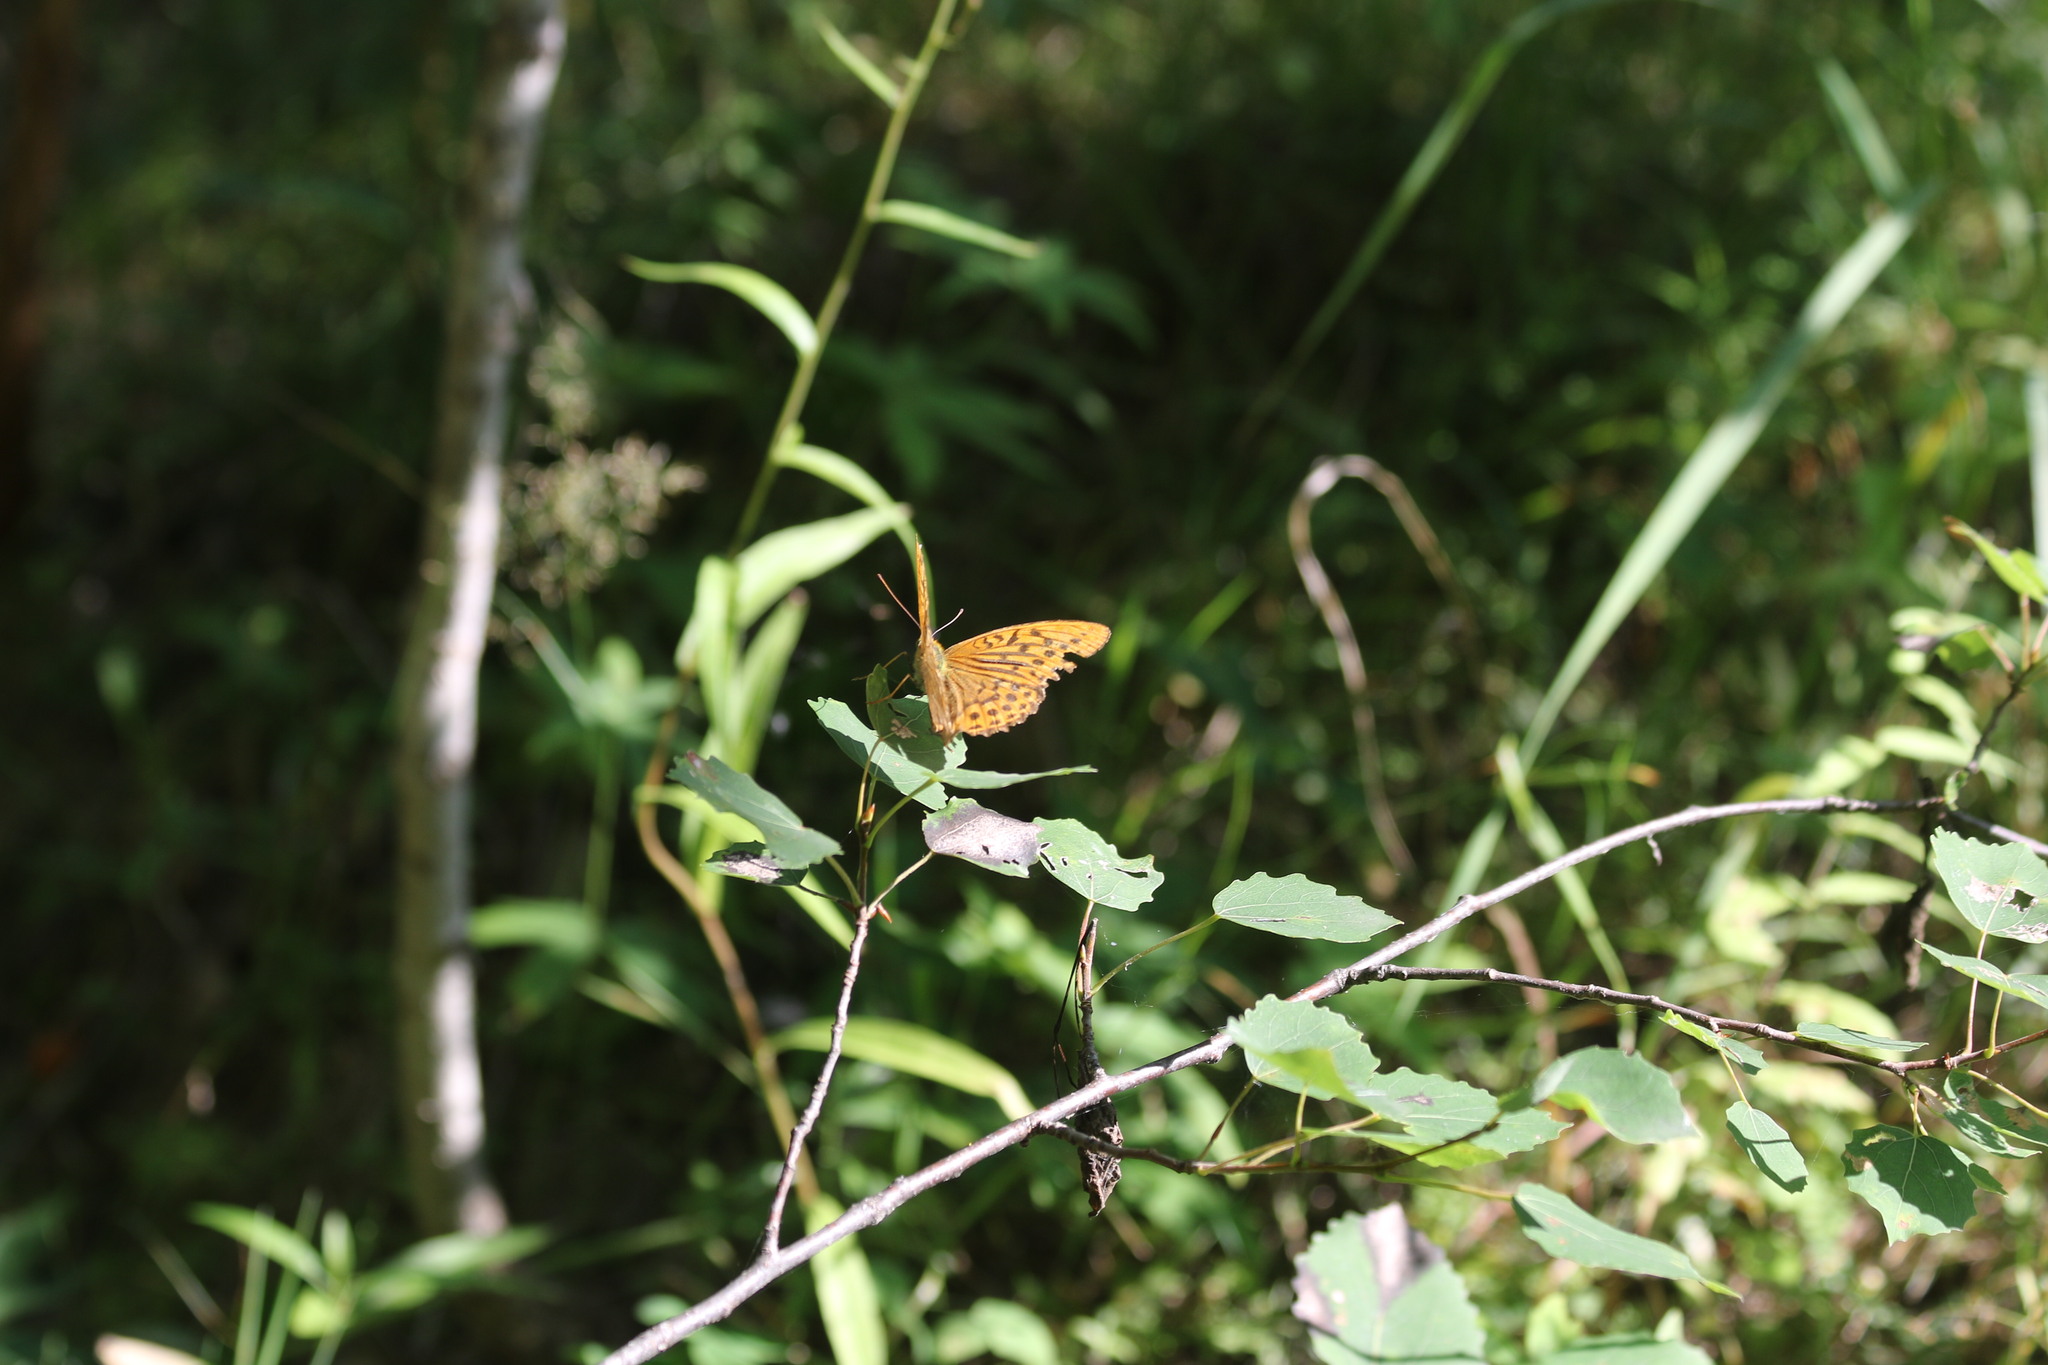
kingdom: Animalia
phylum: Arthropoda
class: Insecta
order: Lepidoptera
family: Nymphalidae
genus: Argynnis
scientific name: Argynnis paphia
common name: Silver-washed fritillary
